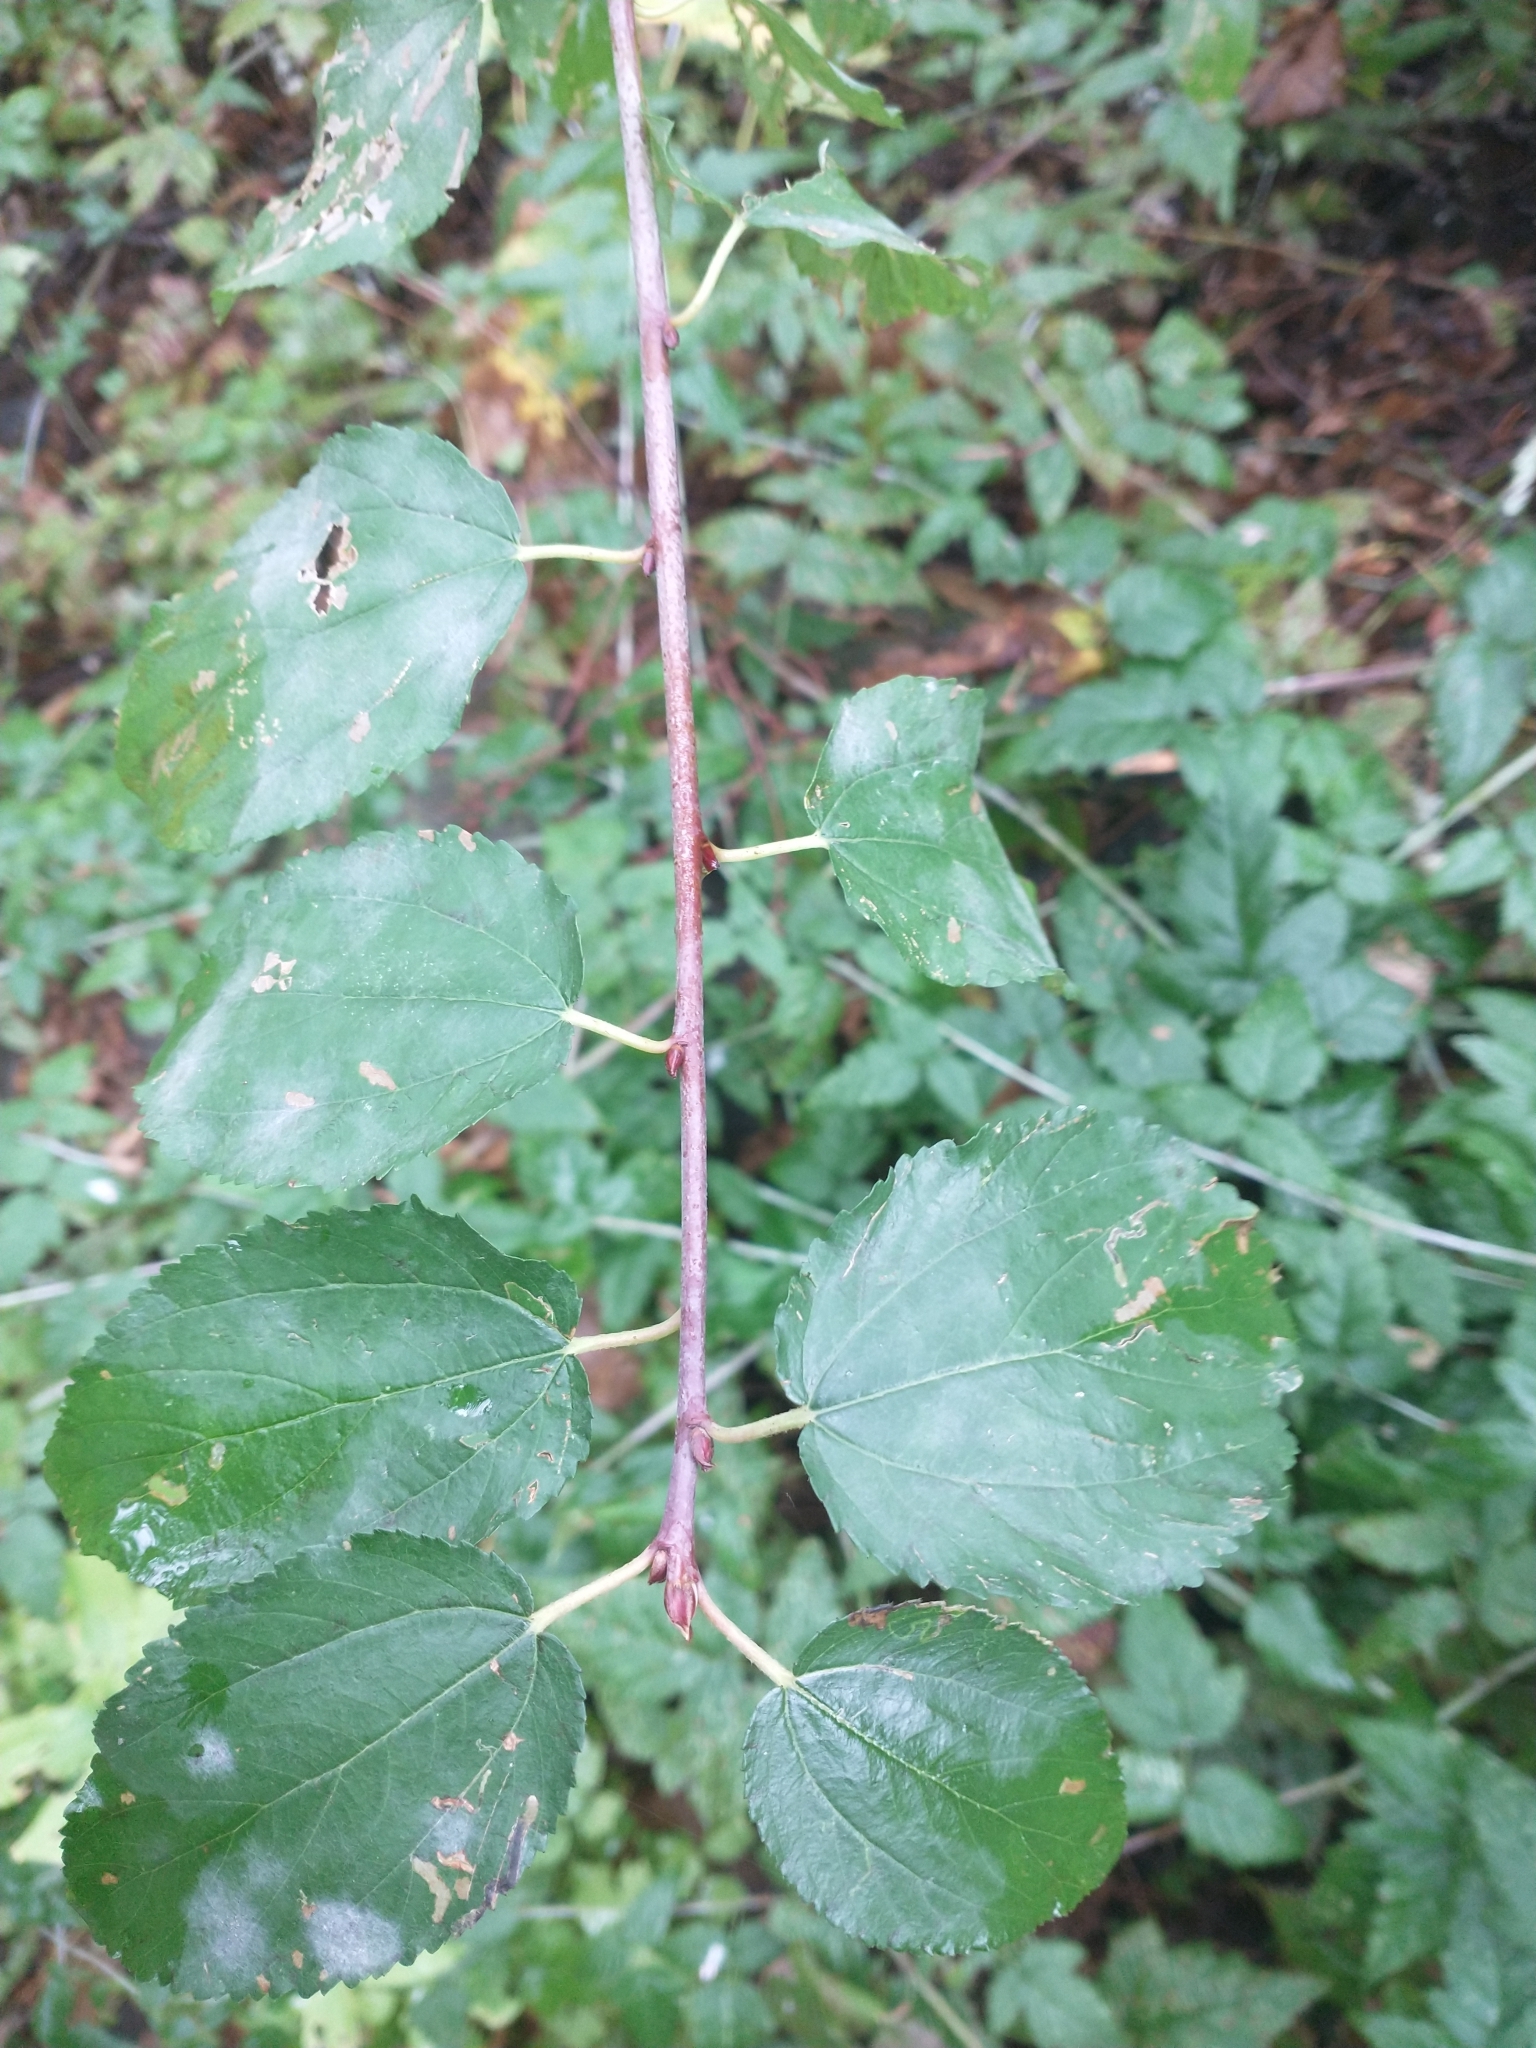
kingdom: Plantae
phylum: Tracheophyta
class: Magnoliopsida
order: Rosales
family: Rhamnaceae
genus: Ceanothus
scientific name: Ceanothus sanguineus
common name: Teatree
